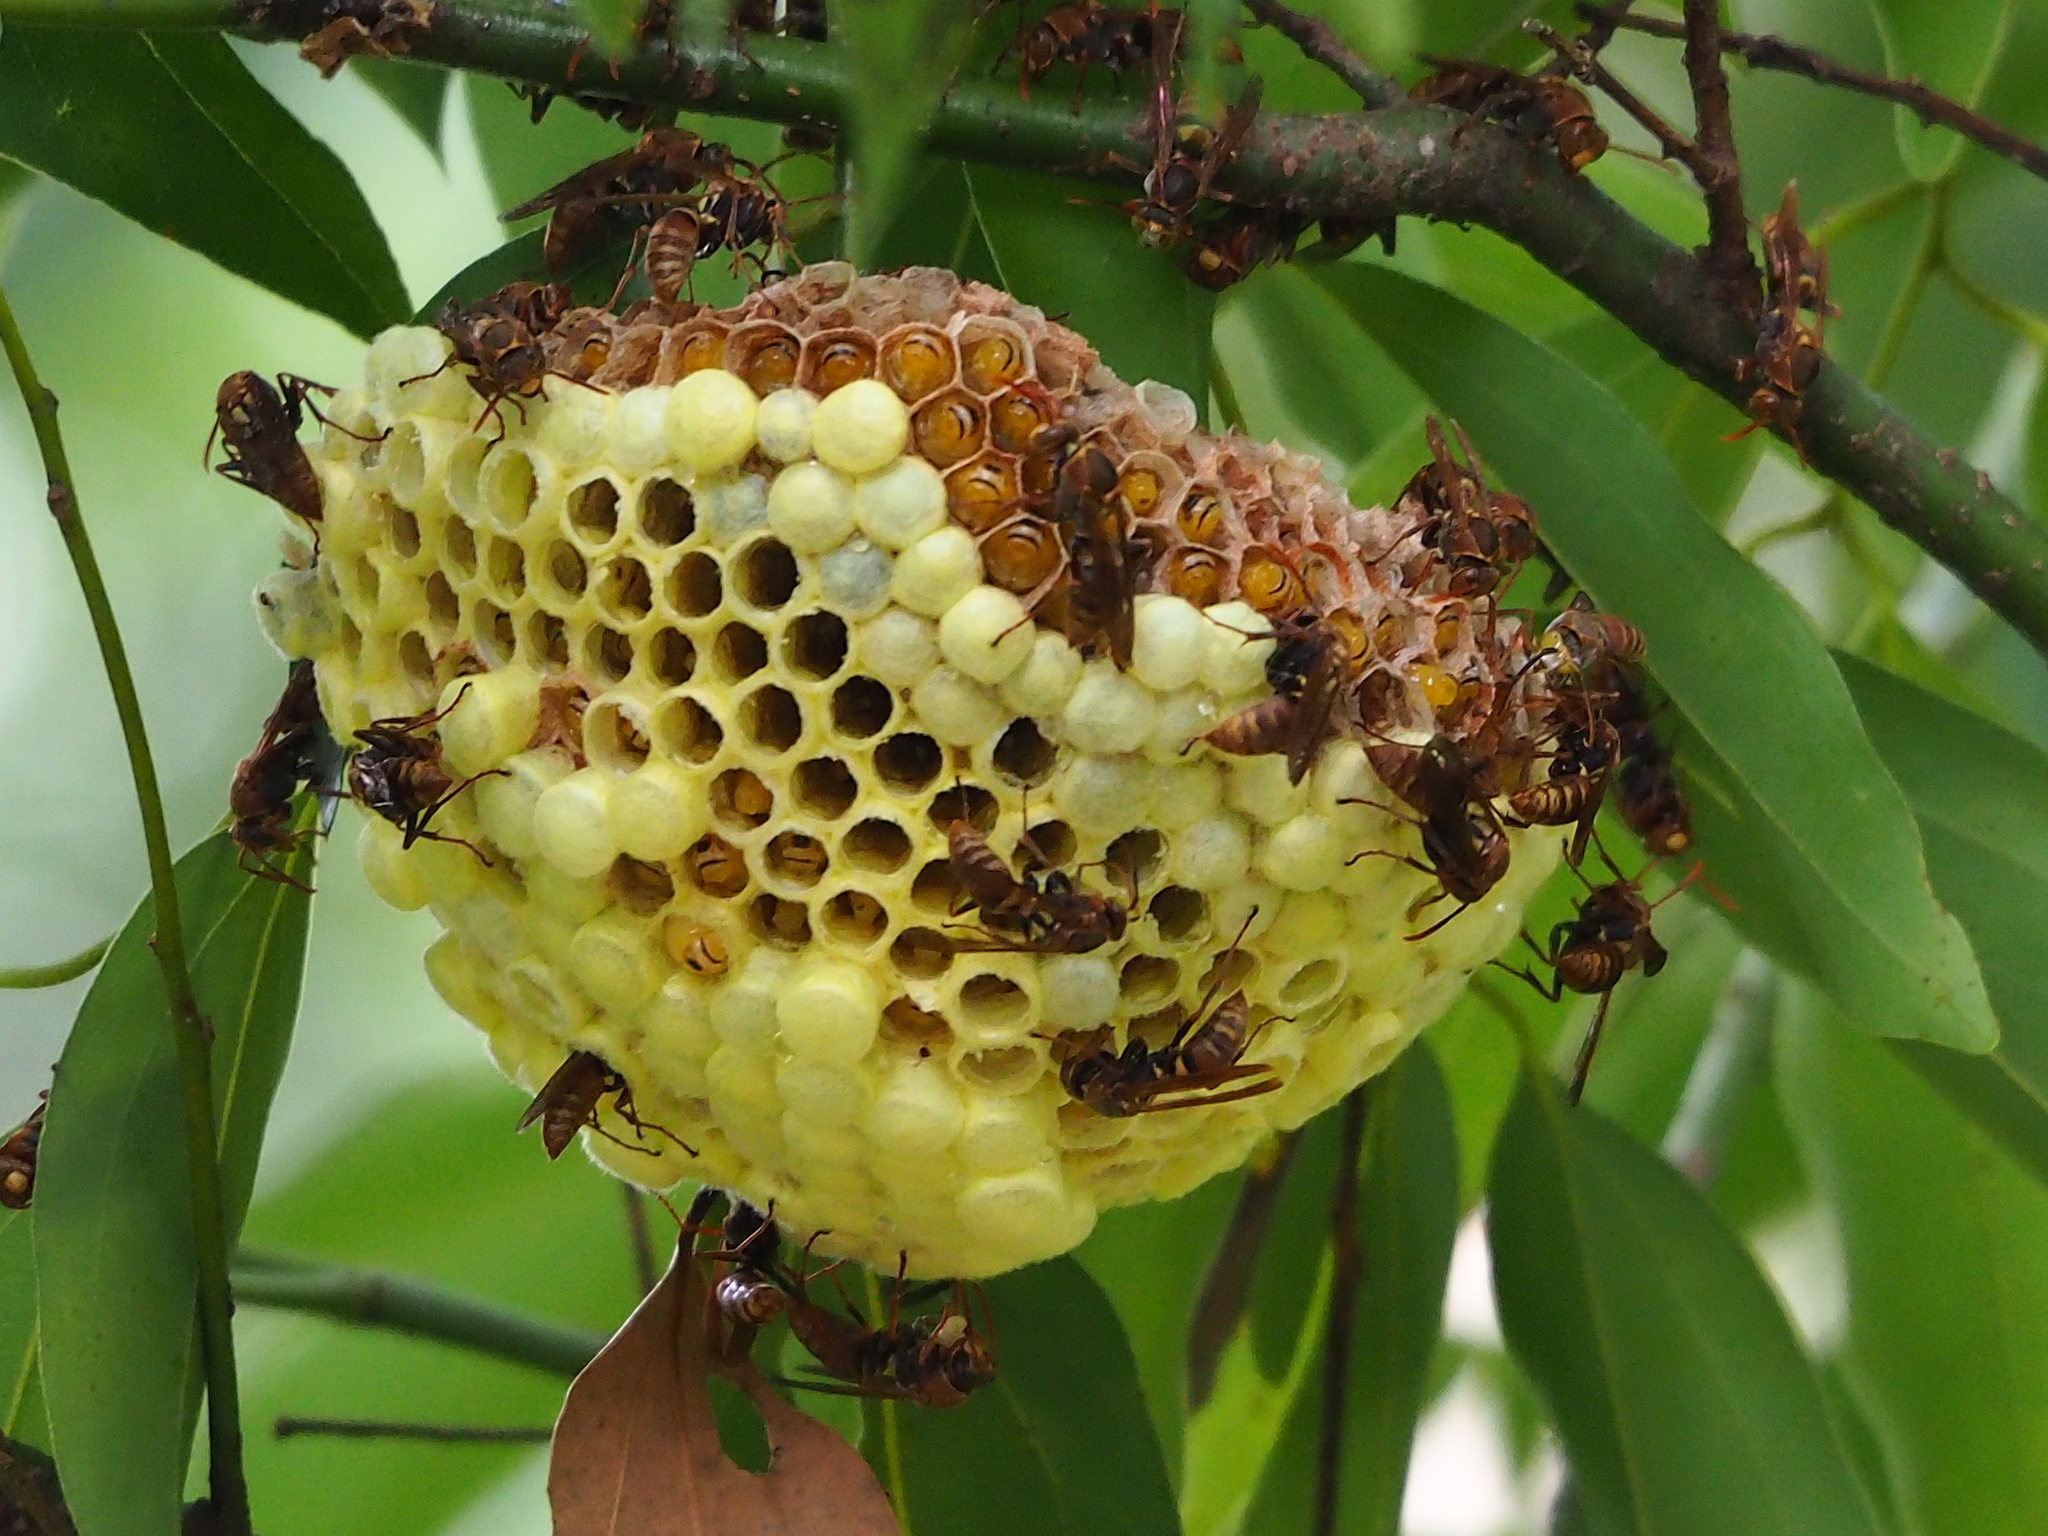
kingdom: Animalia
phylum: Arthropoda
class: Insecta
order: Hymenoptera
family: Eumenidae
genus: Polistes
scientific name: Polistes takasagonus
